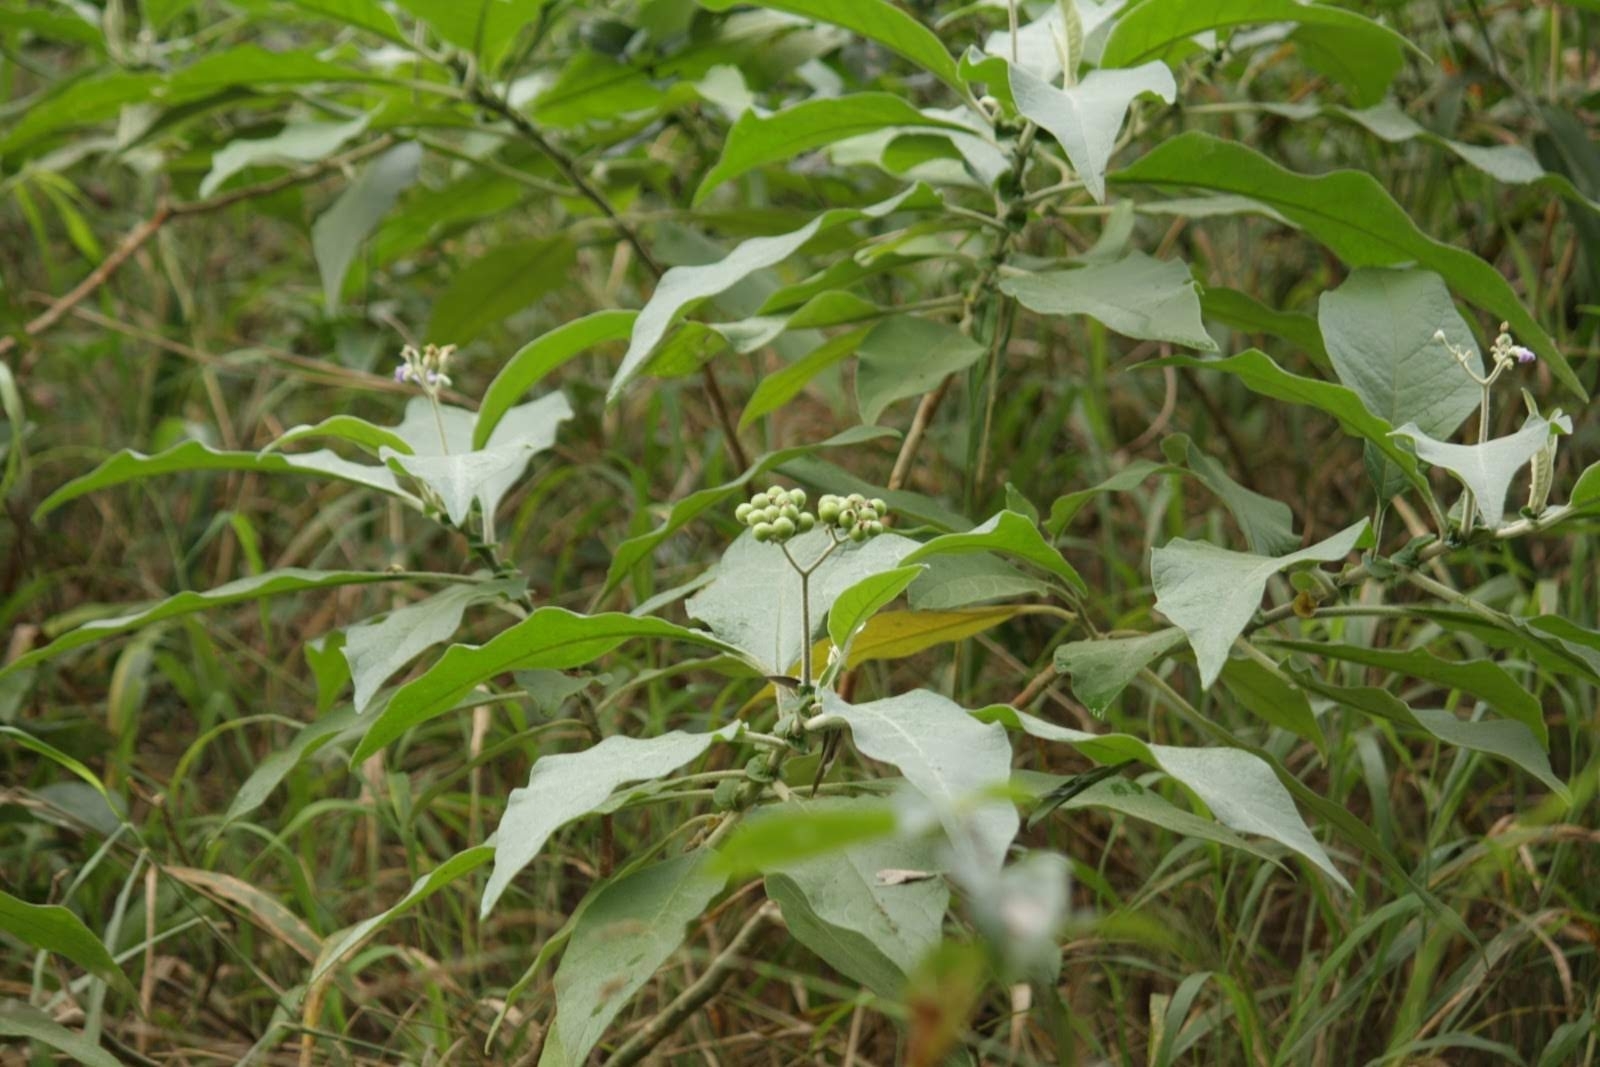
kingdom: Plantae
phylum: Tracheophyta
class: Magnoliopsida
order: Solanales
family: Solanaceae
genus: Solanum
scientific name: Solanum mauritianum
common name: Earleaf nightshade
